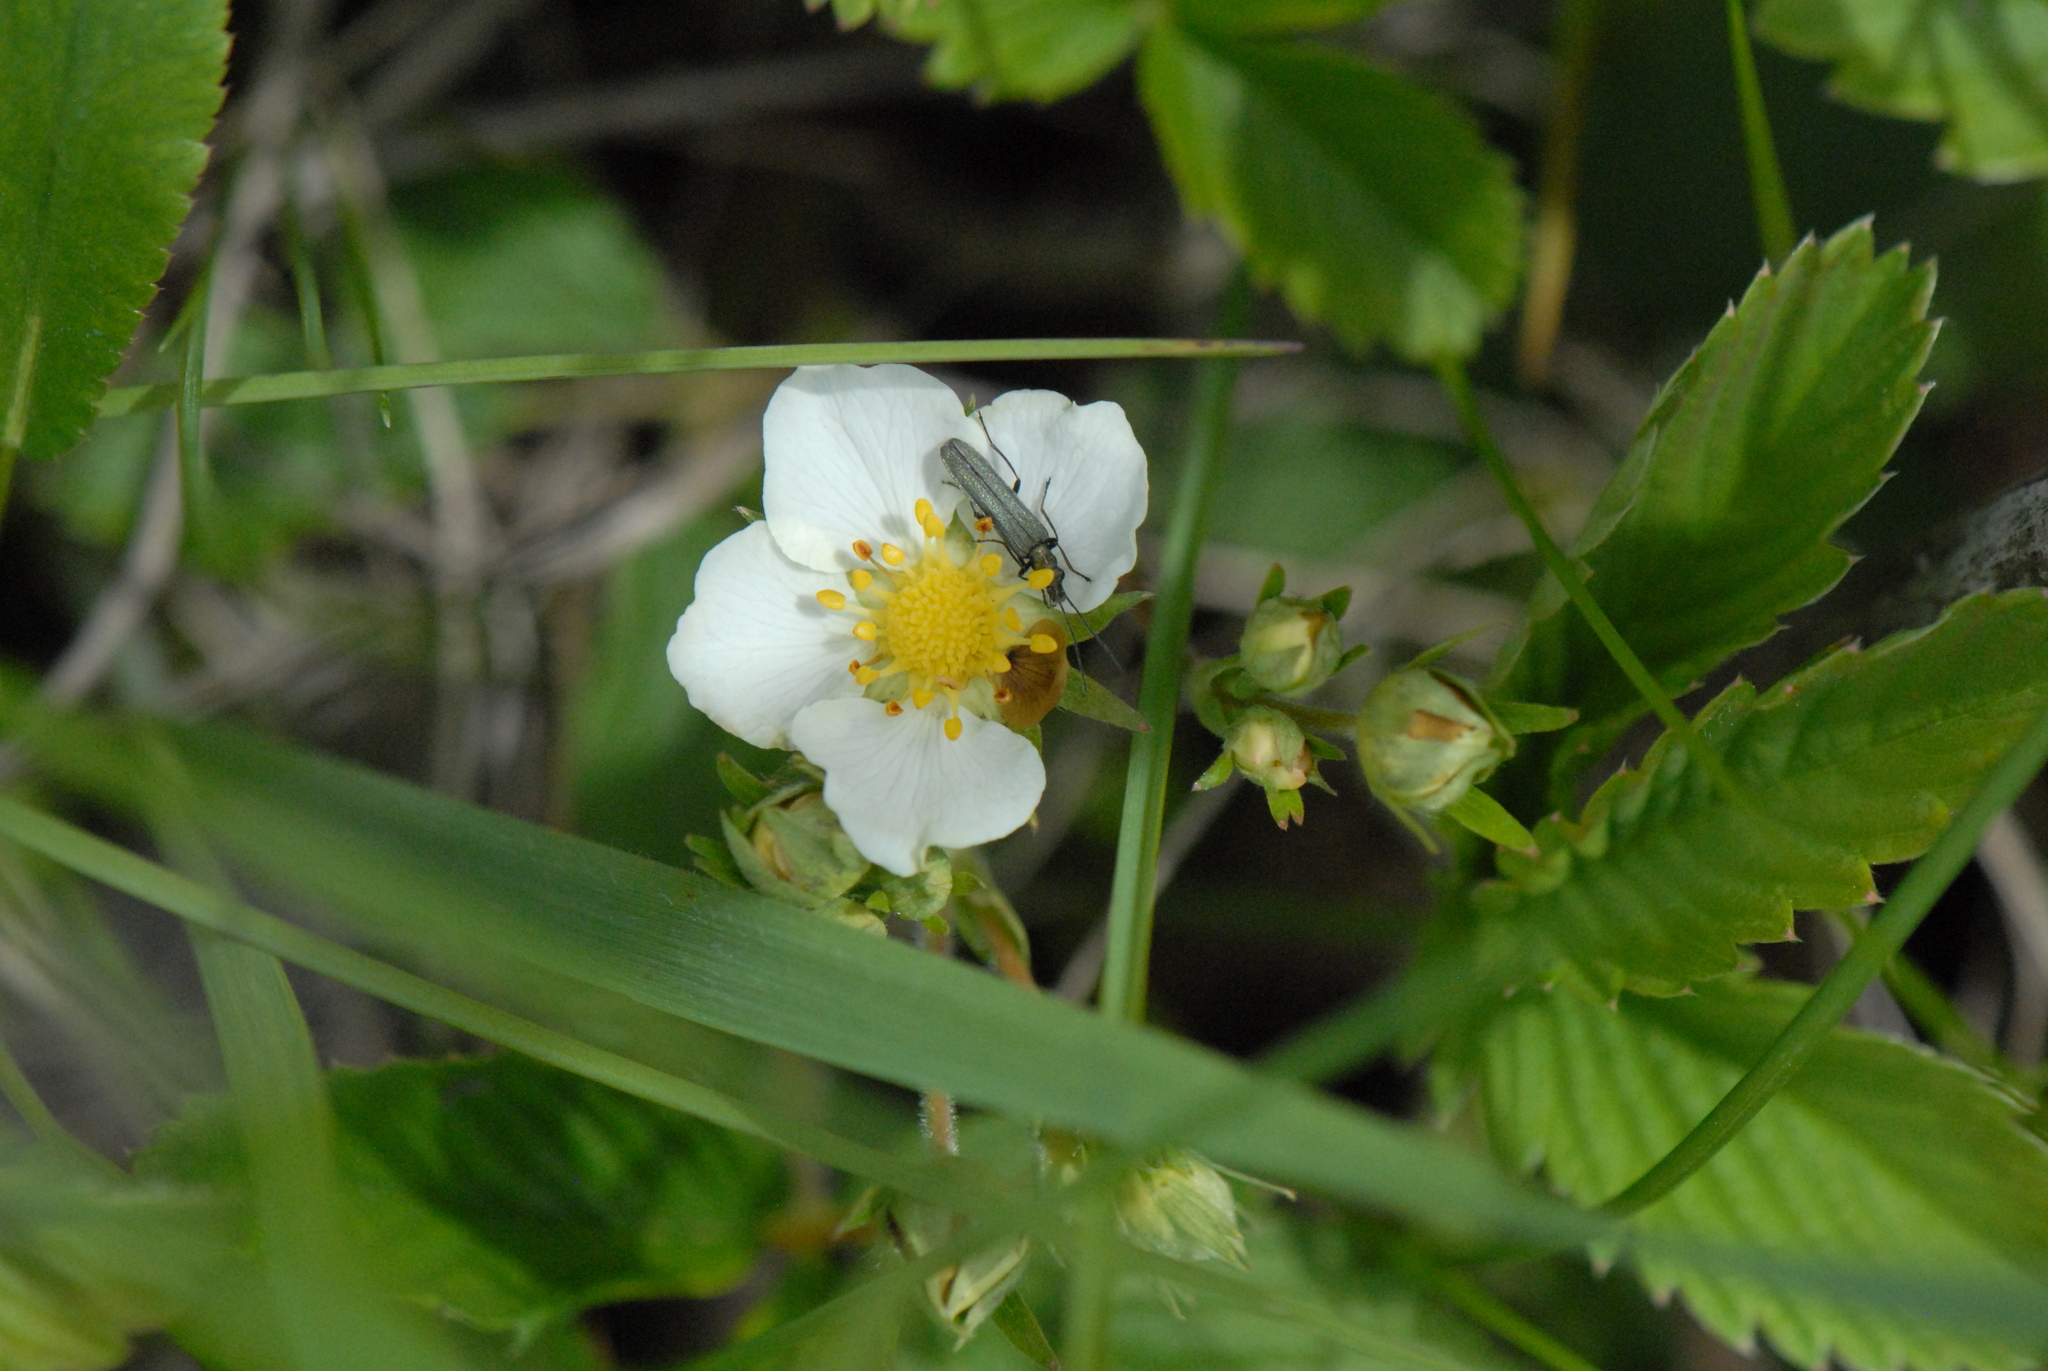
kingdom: Plantae
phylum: Tracheophyta
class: Magnoliopsida
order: Rosales
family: Rosaceae
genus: Fragaria
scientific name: Fragaria viridis
